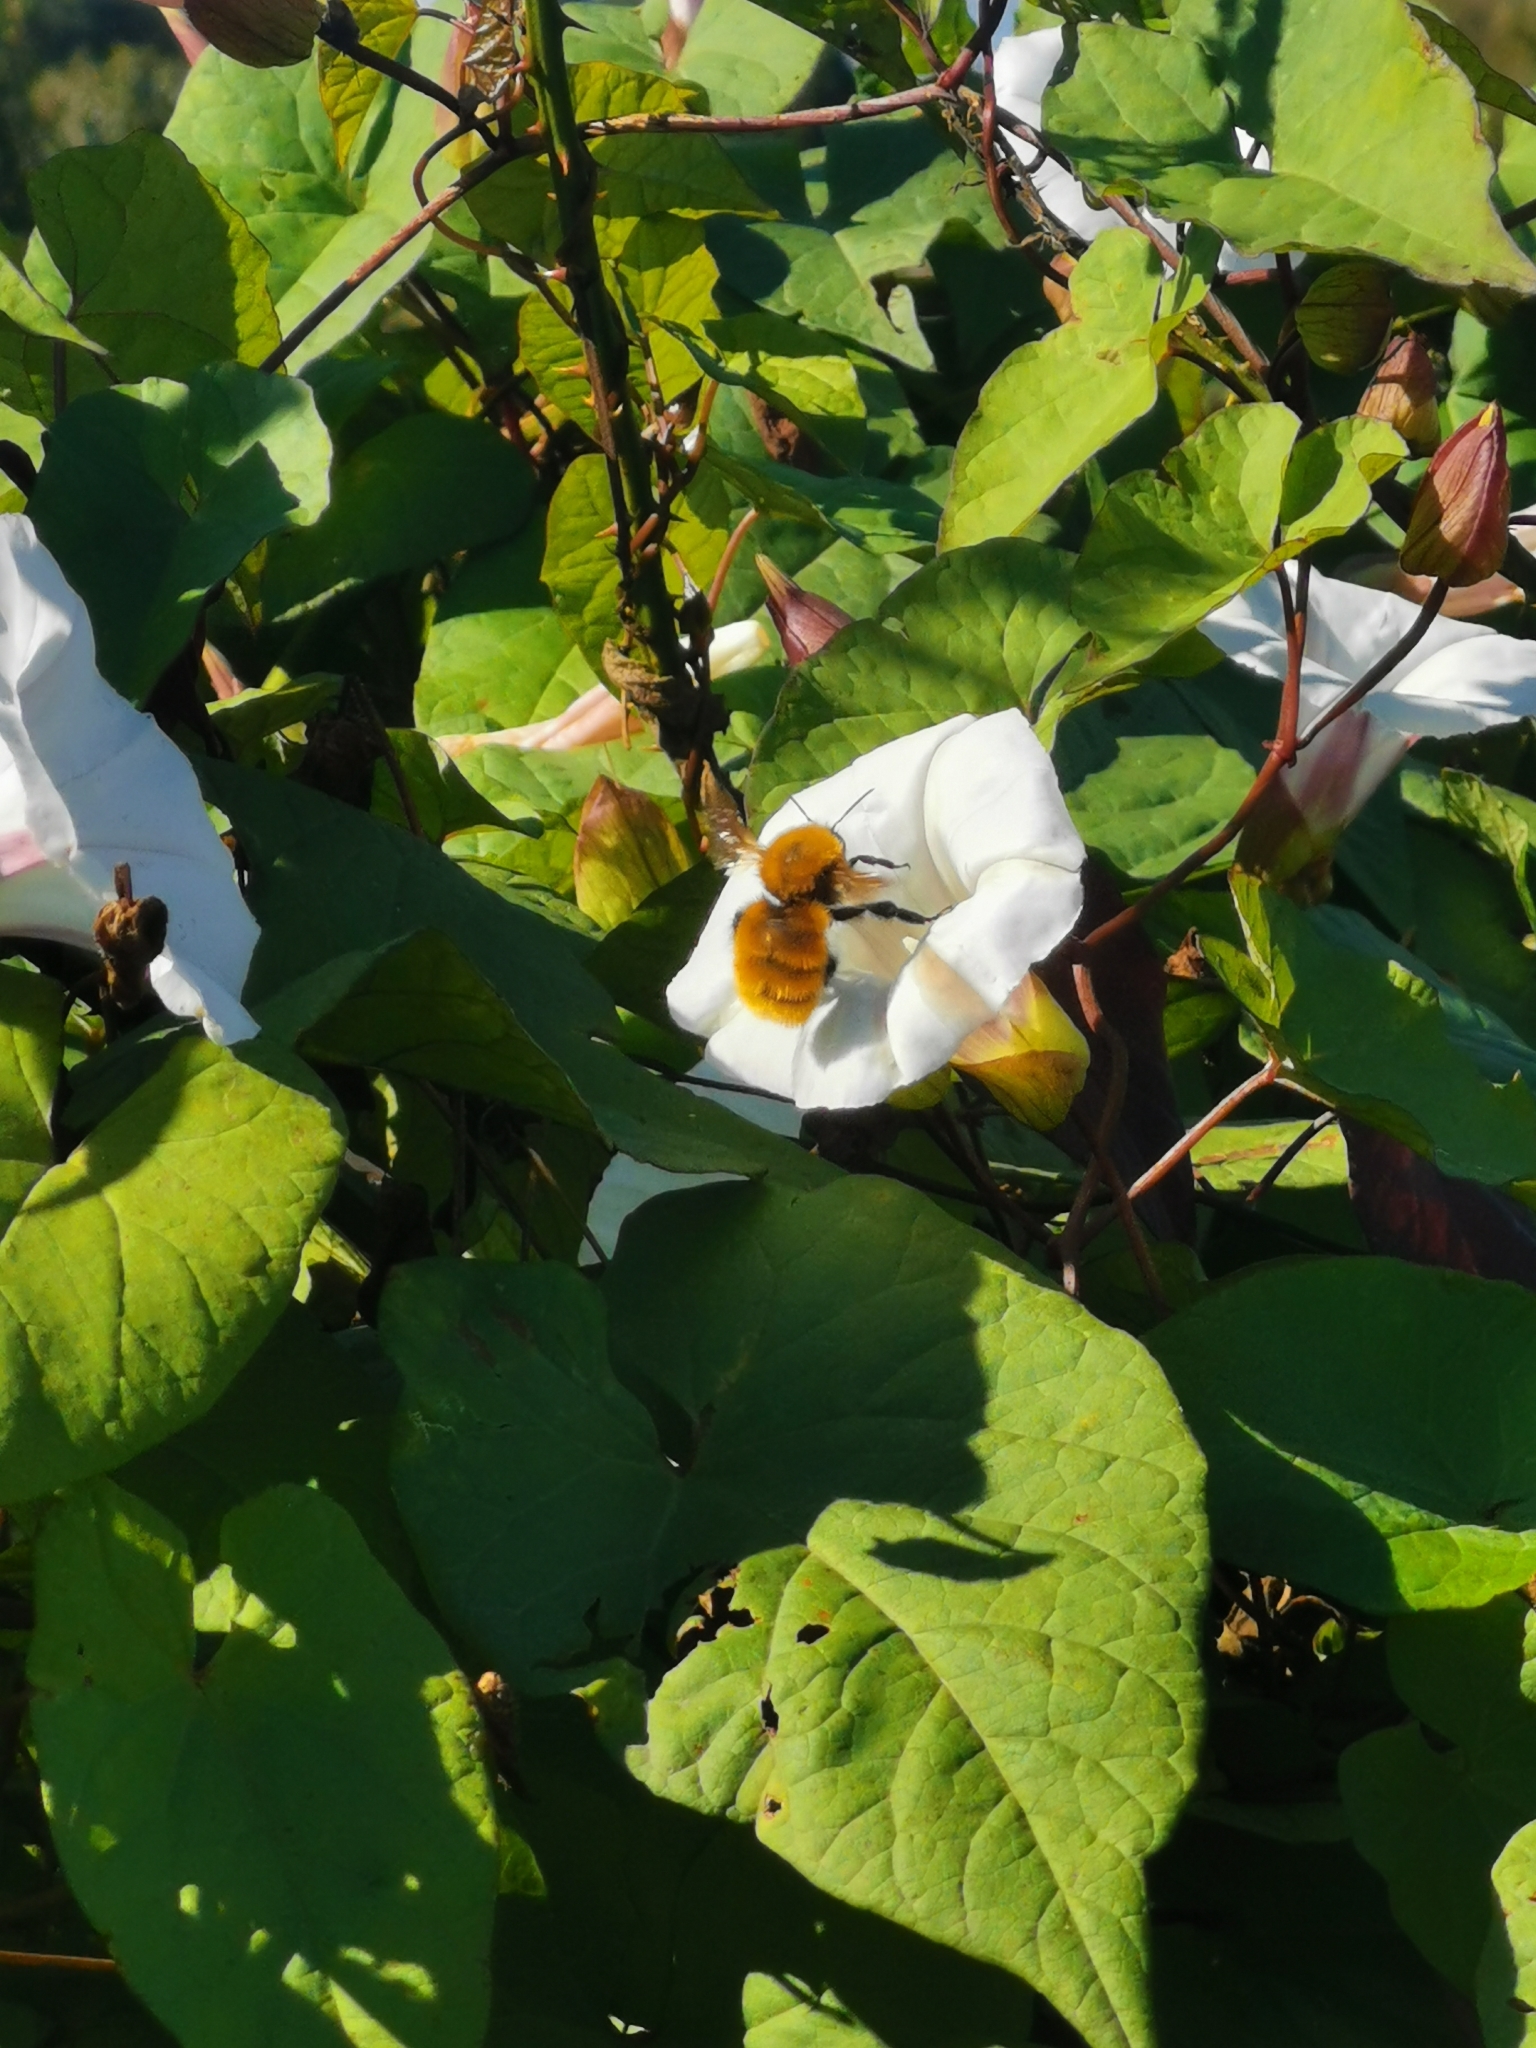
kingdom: Animalia
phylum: Arthropoda
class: Insecta
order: Hymenoptera
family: Apidae
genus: Bombus
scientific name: Bombus dahlbomii
